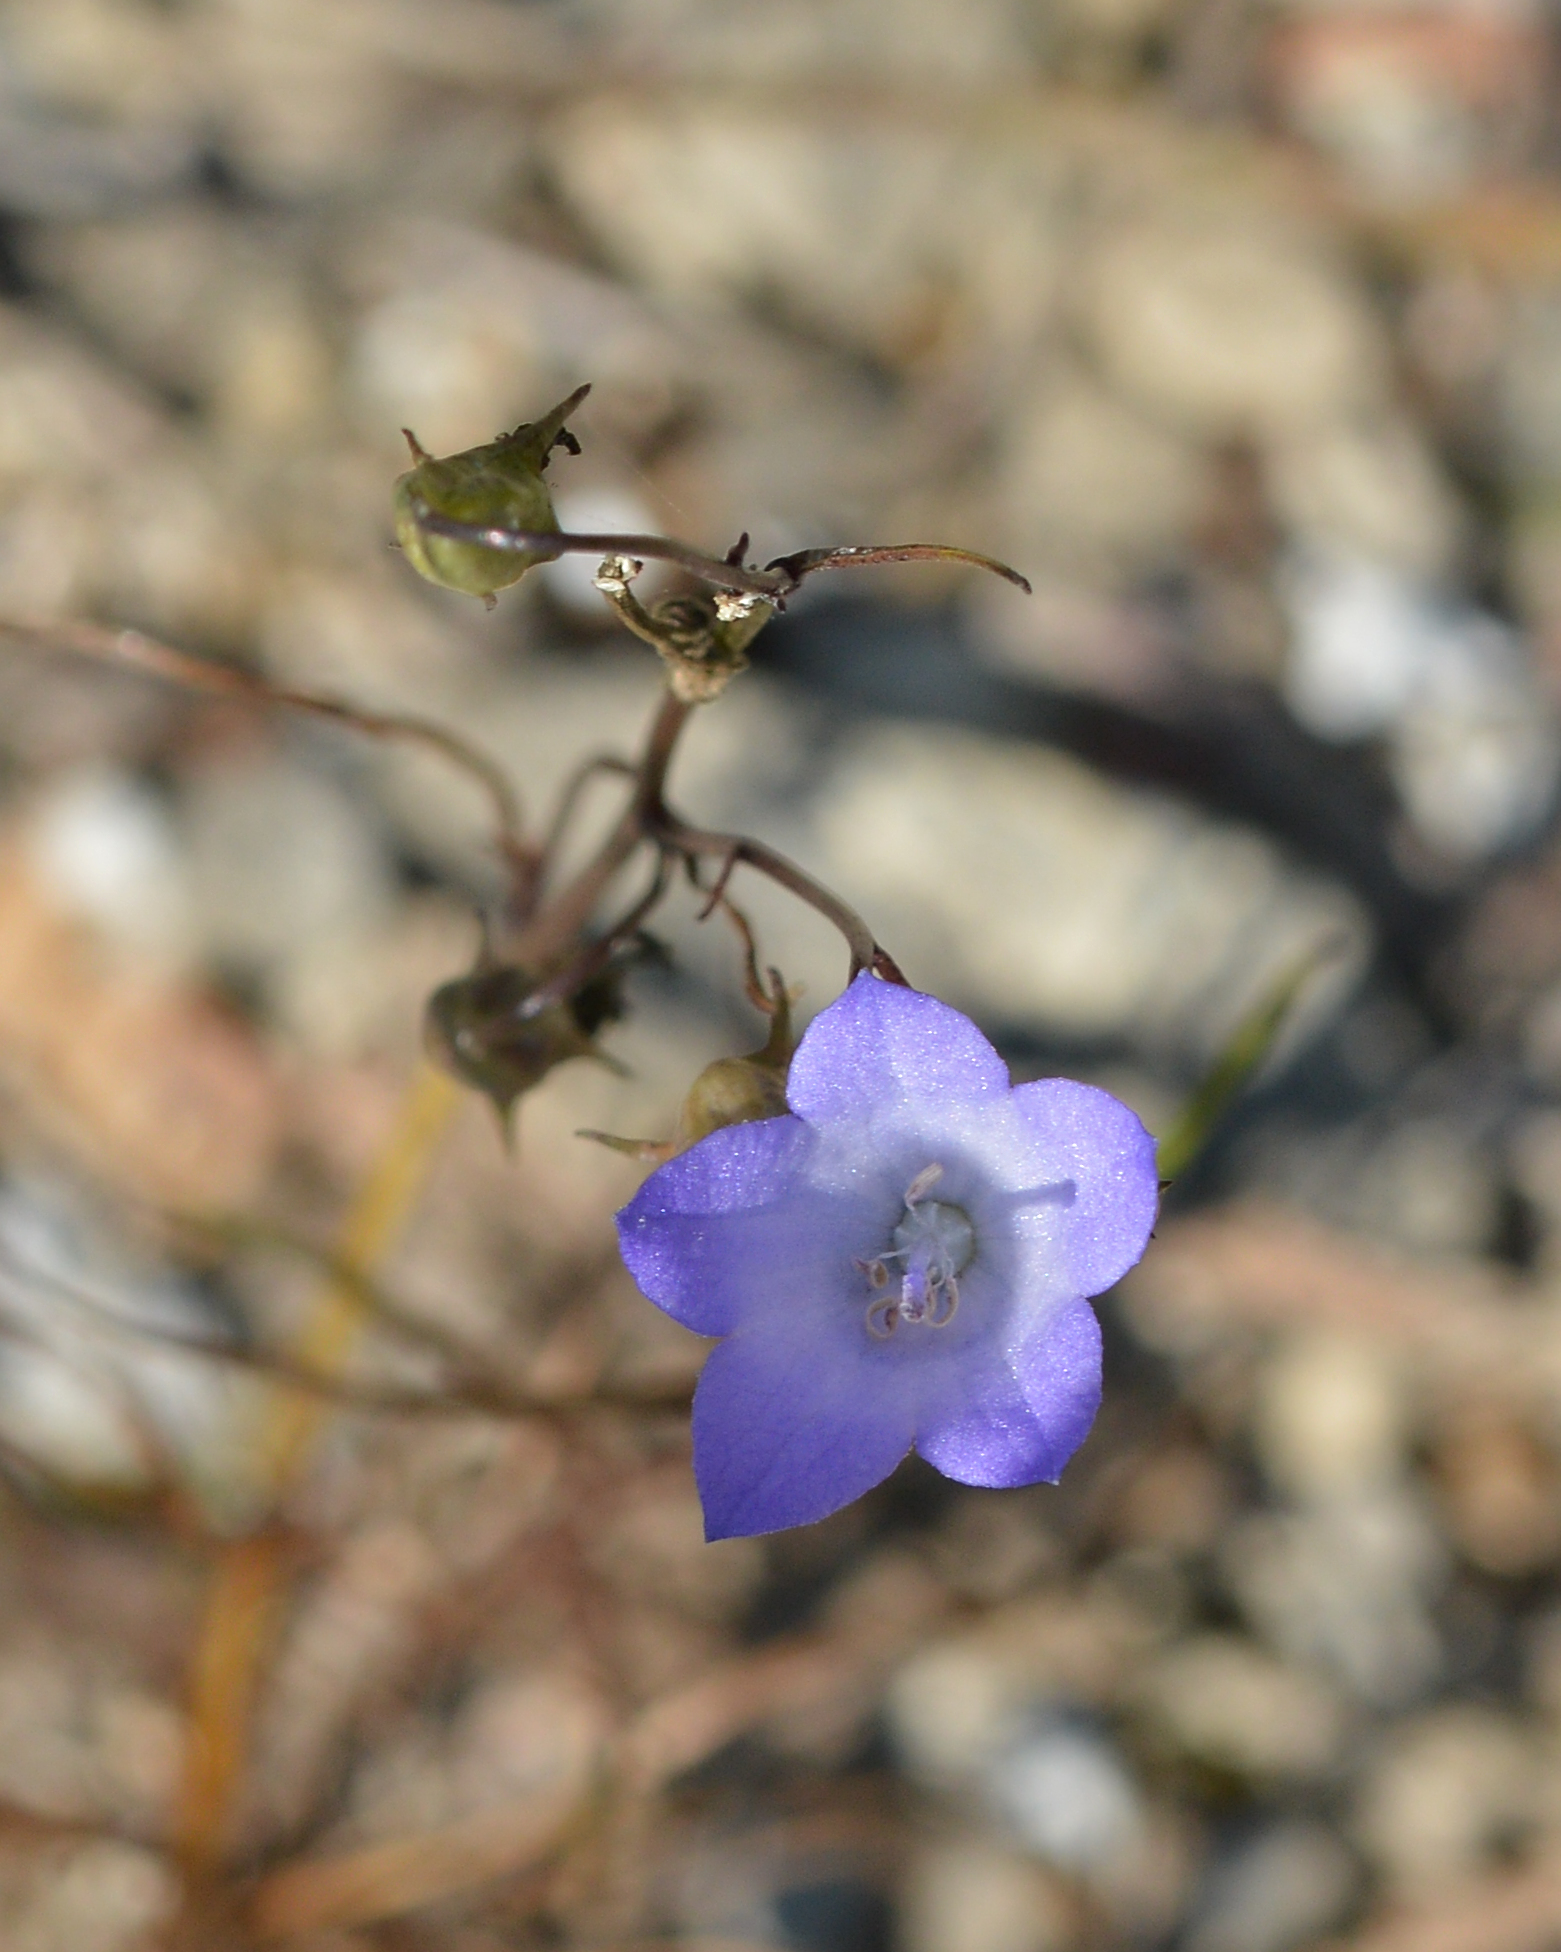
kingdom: Plantae
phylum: Tracheophyta
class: Magnoliopsida
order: Asterales
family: Campanulaceae
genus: Campanula
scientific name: Campanula giesekiana
